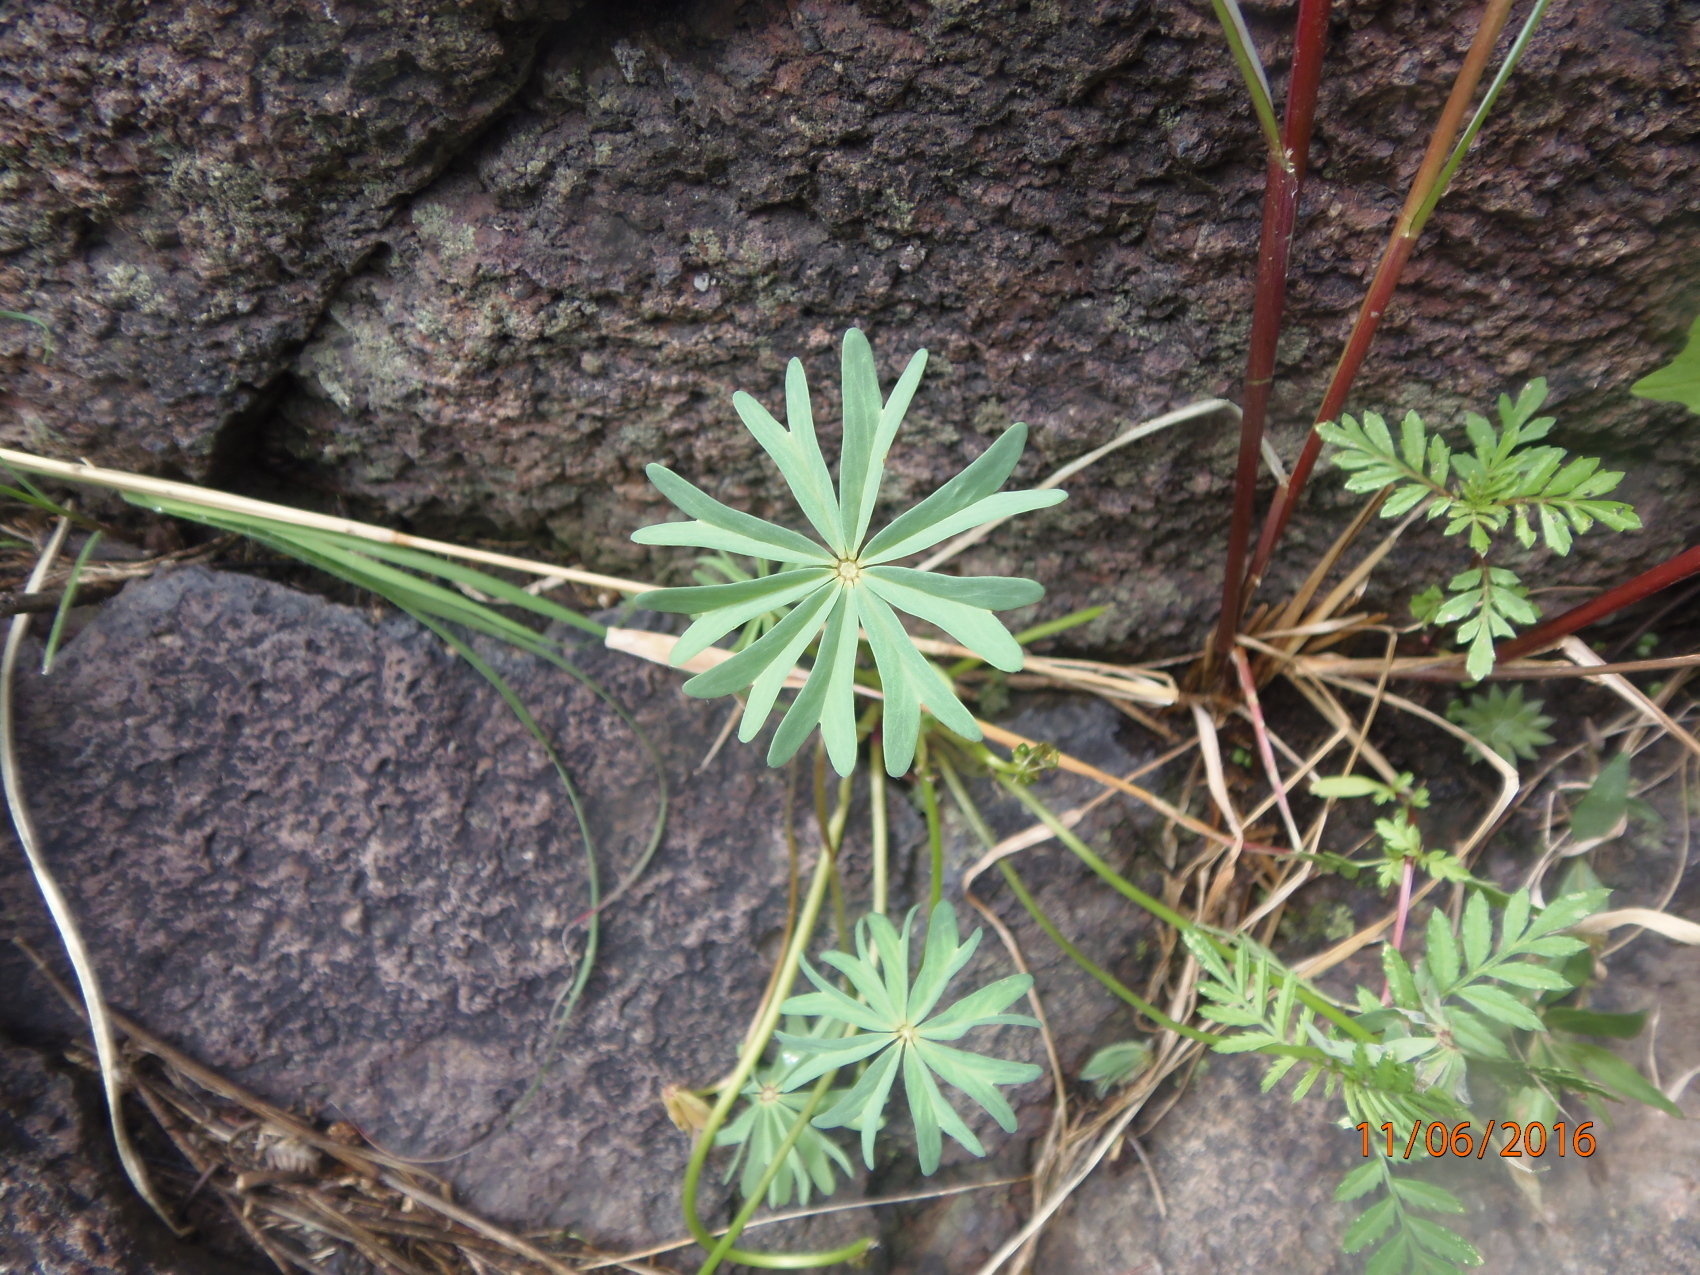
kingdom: Plantae
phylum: Tracheophyta
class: Magnoliopsida
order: Oxalidales
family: Oxalidaceae
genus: Oxalis
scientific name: Oxalis decaphylla
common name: Ten-leaved pink-sorrel
